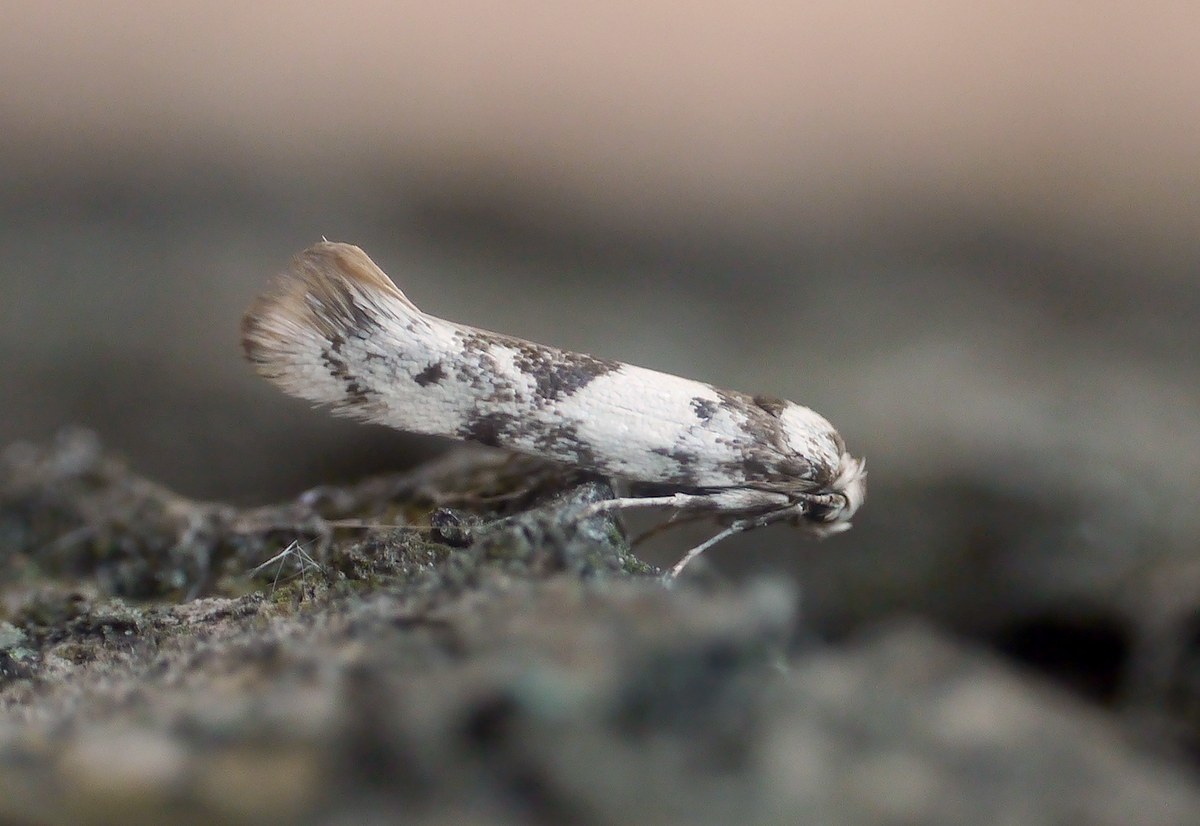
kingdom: Animalia
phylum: Arthropoda
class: Insecta
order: Lepidoptera
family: Scythrididae
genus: Episcythris
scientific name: Episcythris triangulella
